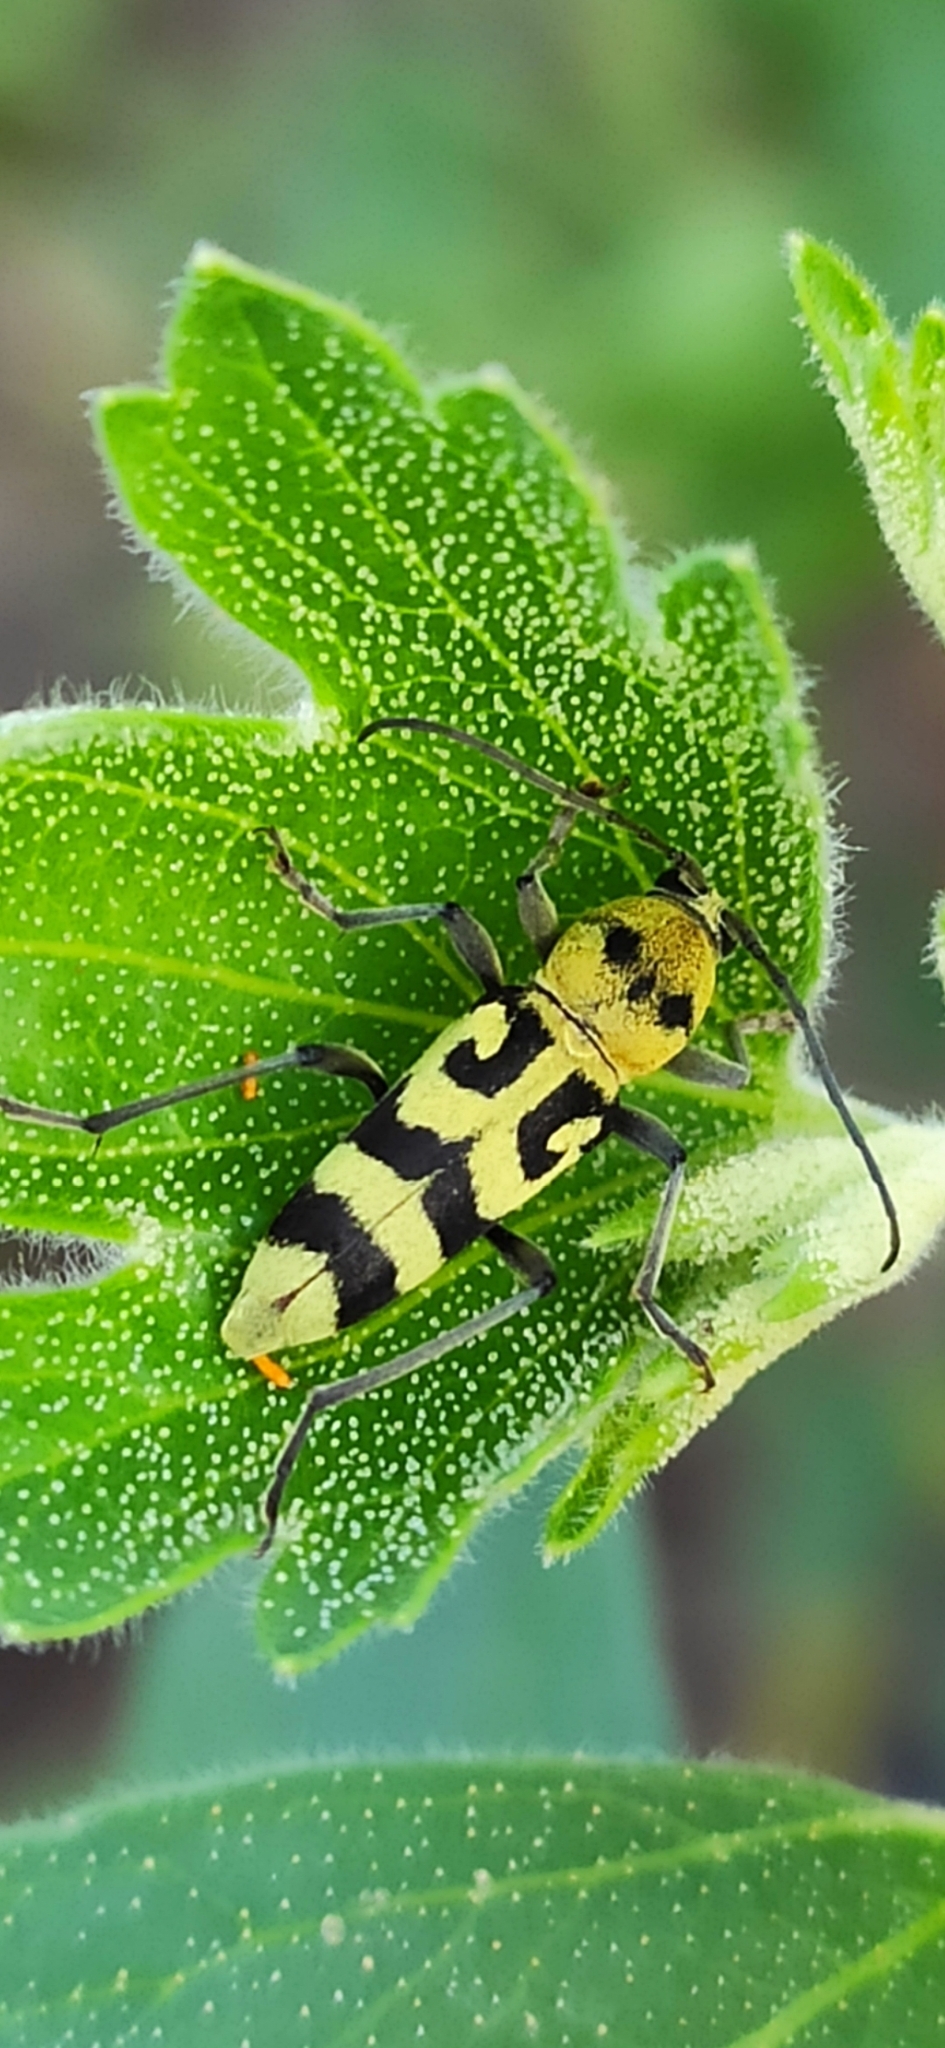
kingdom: Animalia
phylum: Arthropoda
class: Insecta
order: Coleoptera
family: Cerambycidae
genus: Chlorophorus
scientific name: Chlorophorus varius
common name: Grape wood borer
